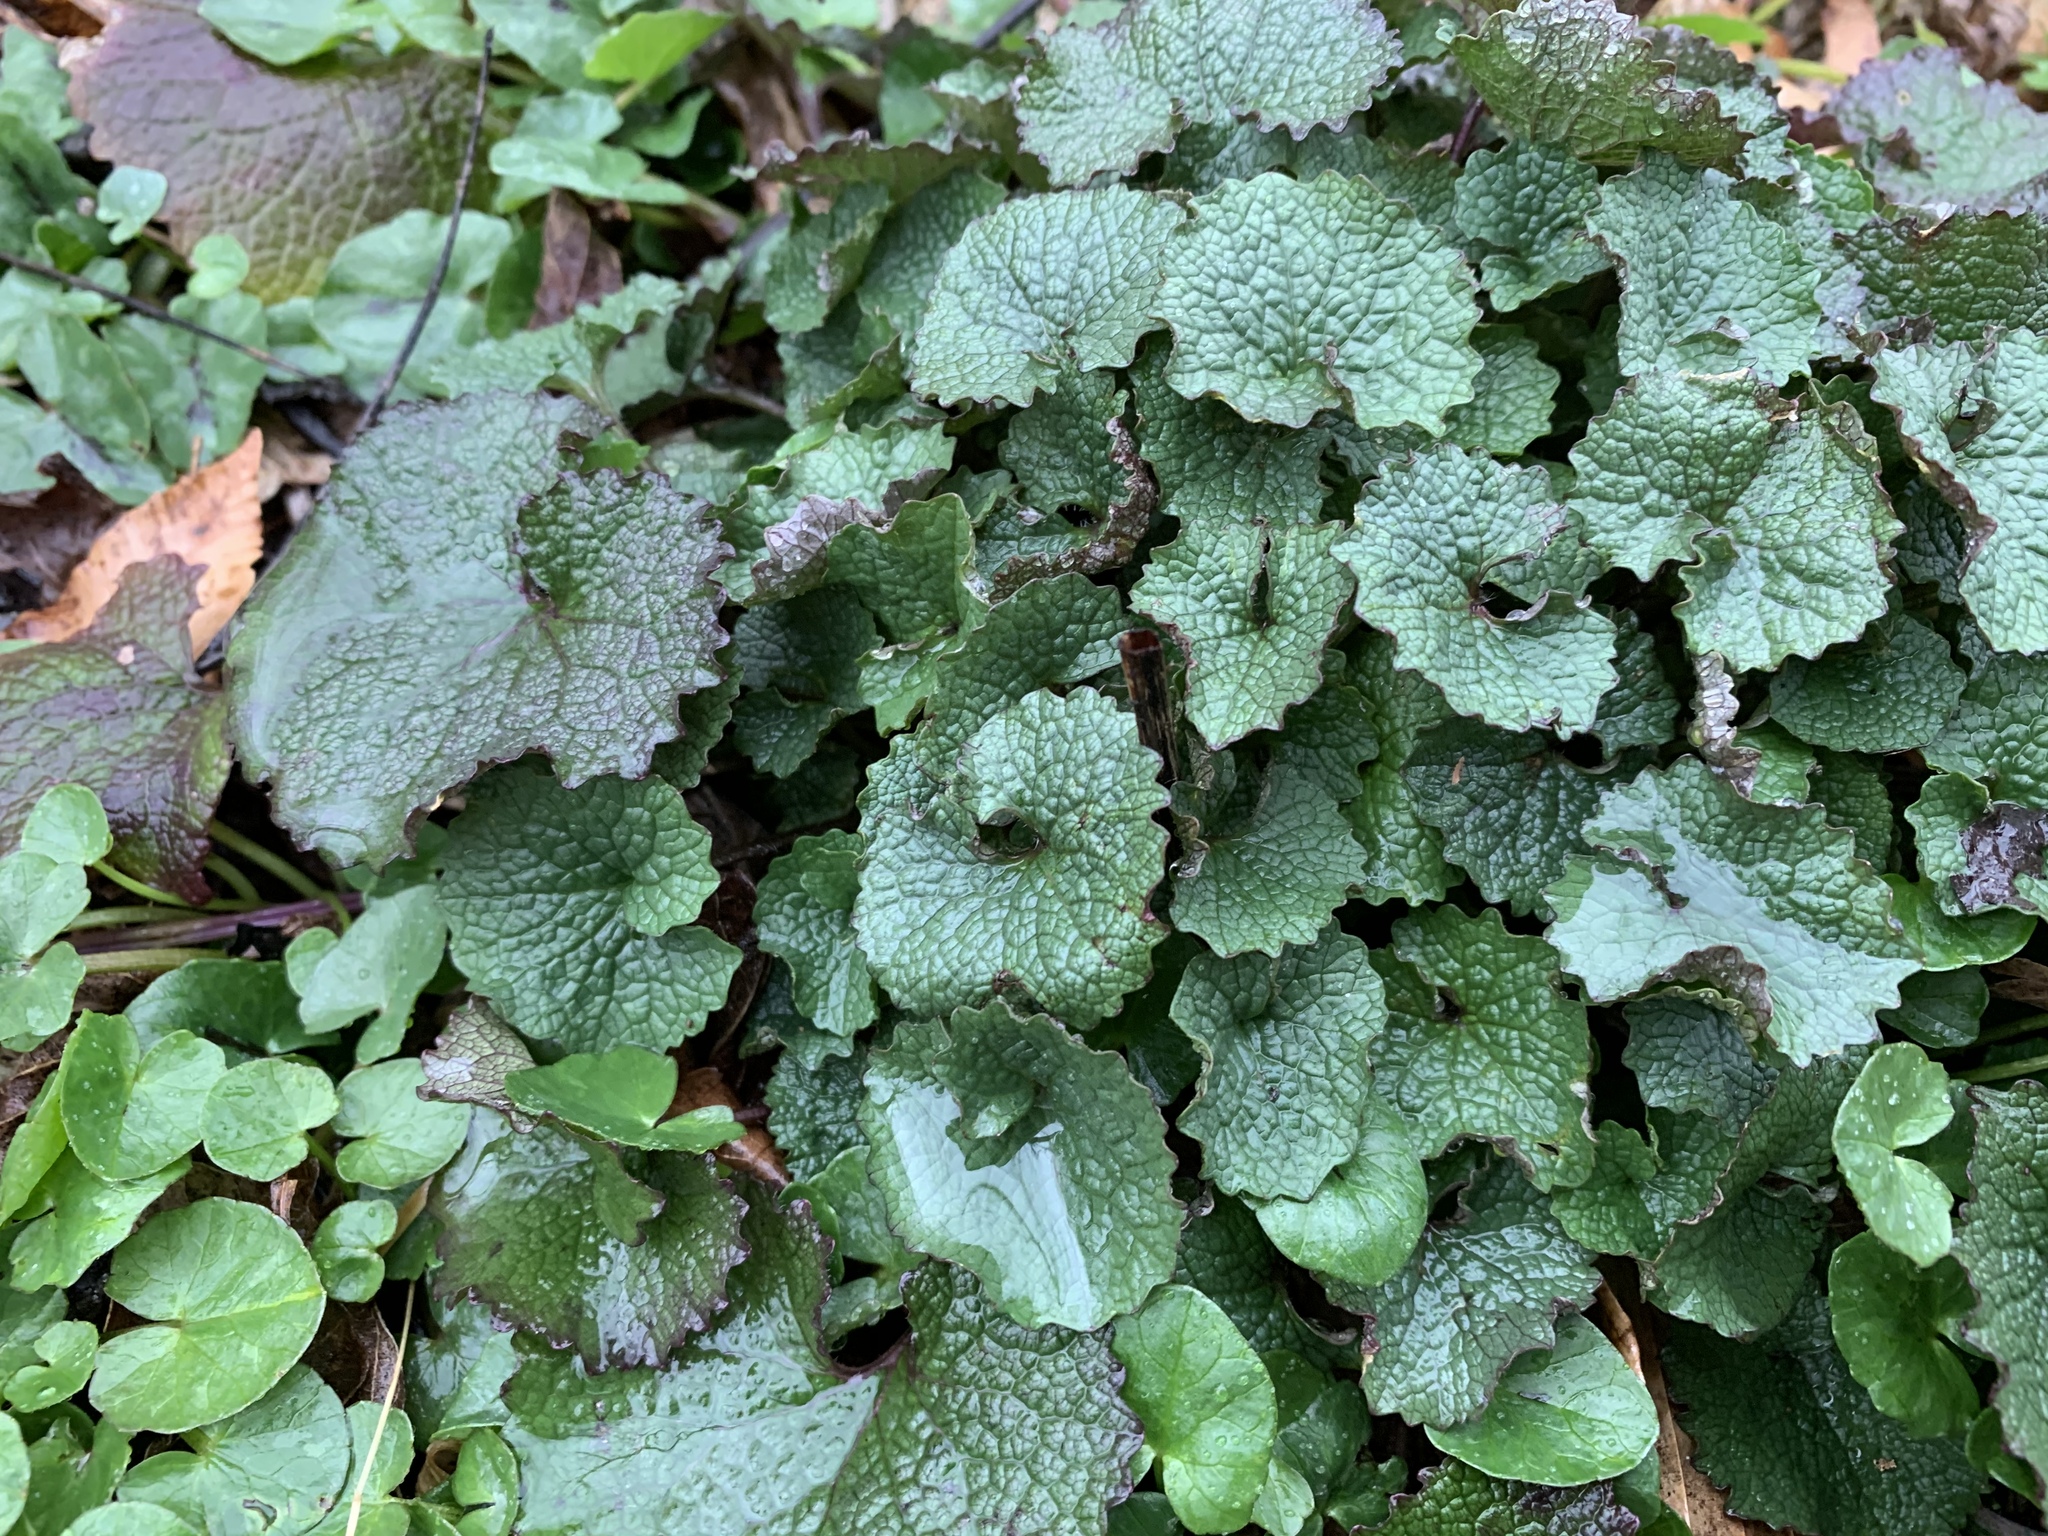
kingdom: Plantae
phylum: Tracheophyta
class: Magnoliopsida
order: Brassicales
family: Brassicaceae
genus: Alliaria
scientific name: Alliaria petiolata
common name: Garlic mustard
